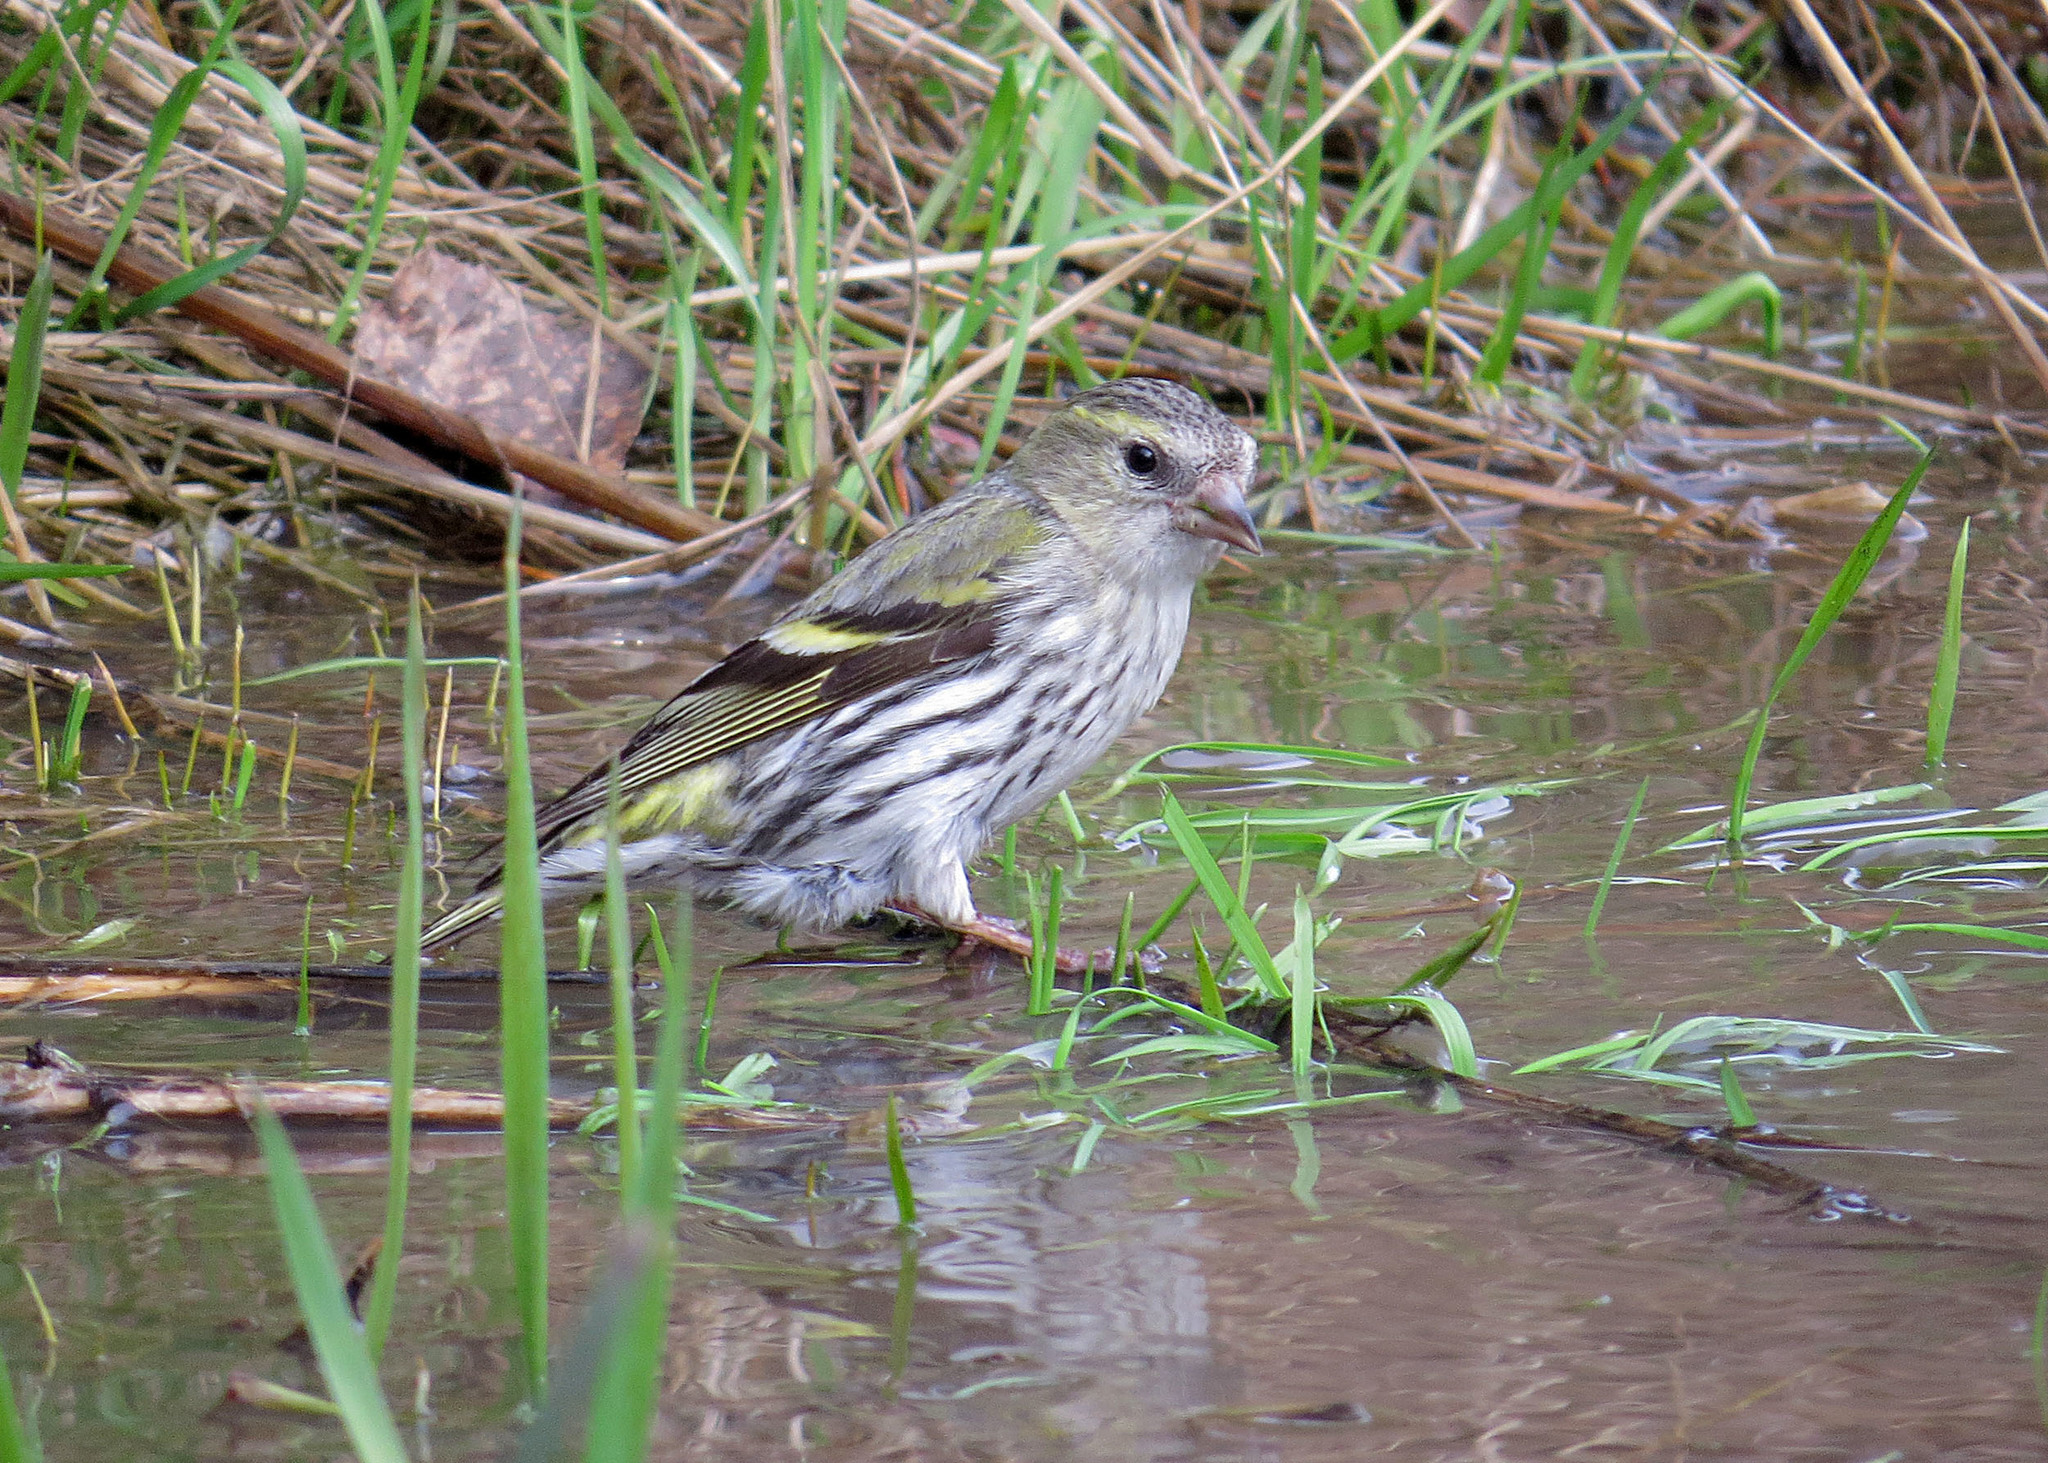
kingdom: Animalia
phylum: Chordata
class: Aves
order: Passeriformes
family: Fringillidae
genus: Spinus
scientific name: Spinus spinus
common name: Eurasian siskin
